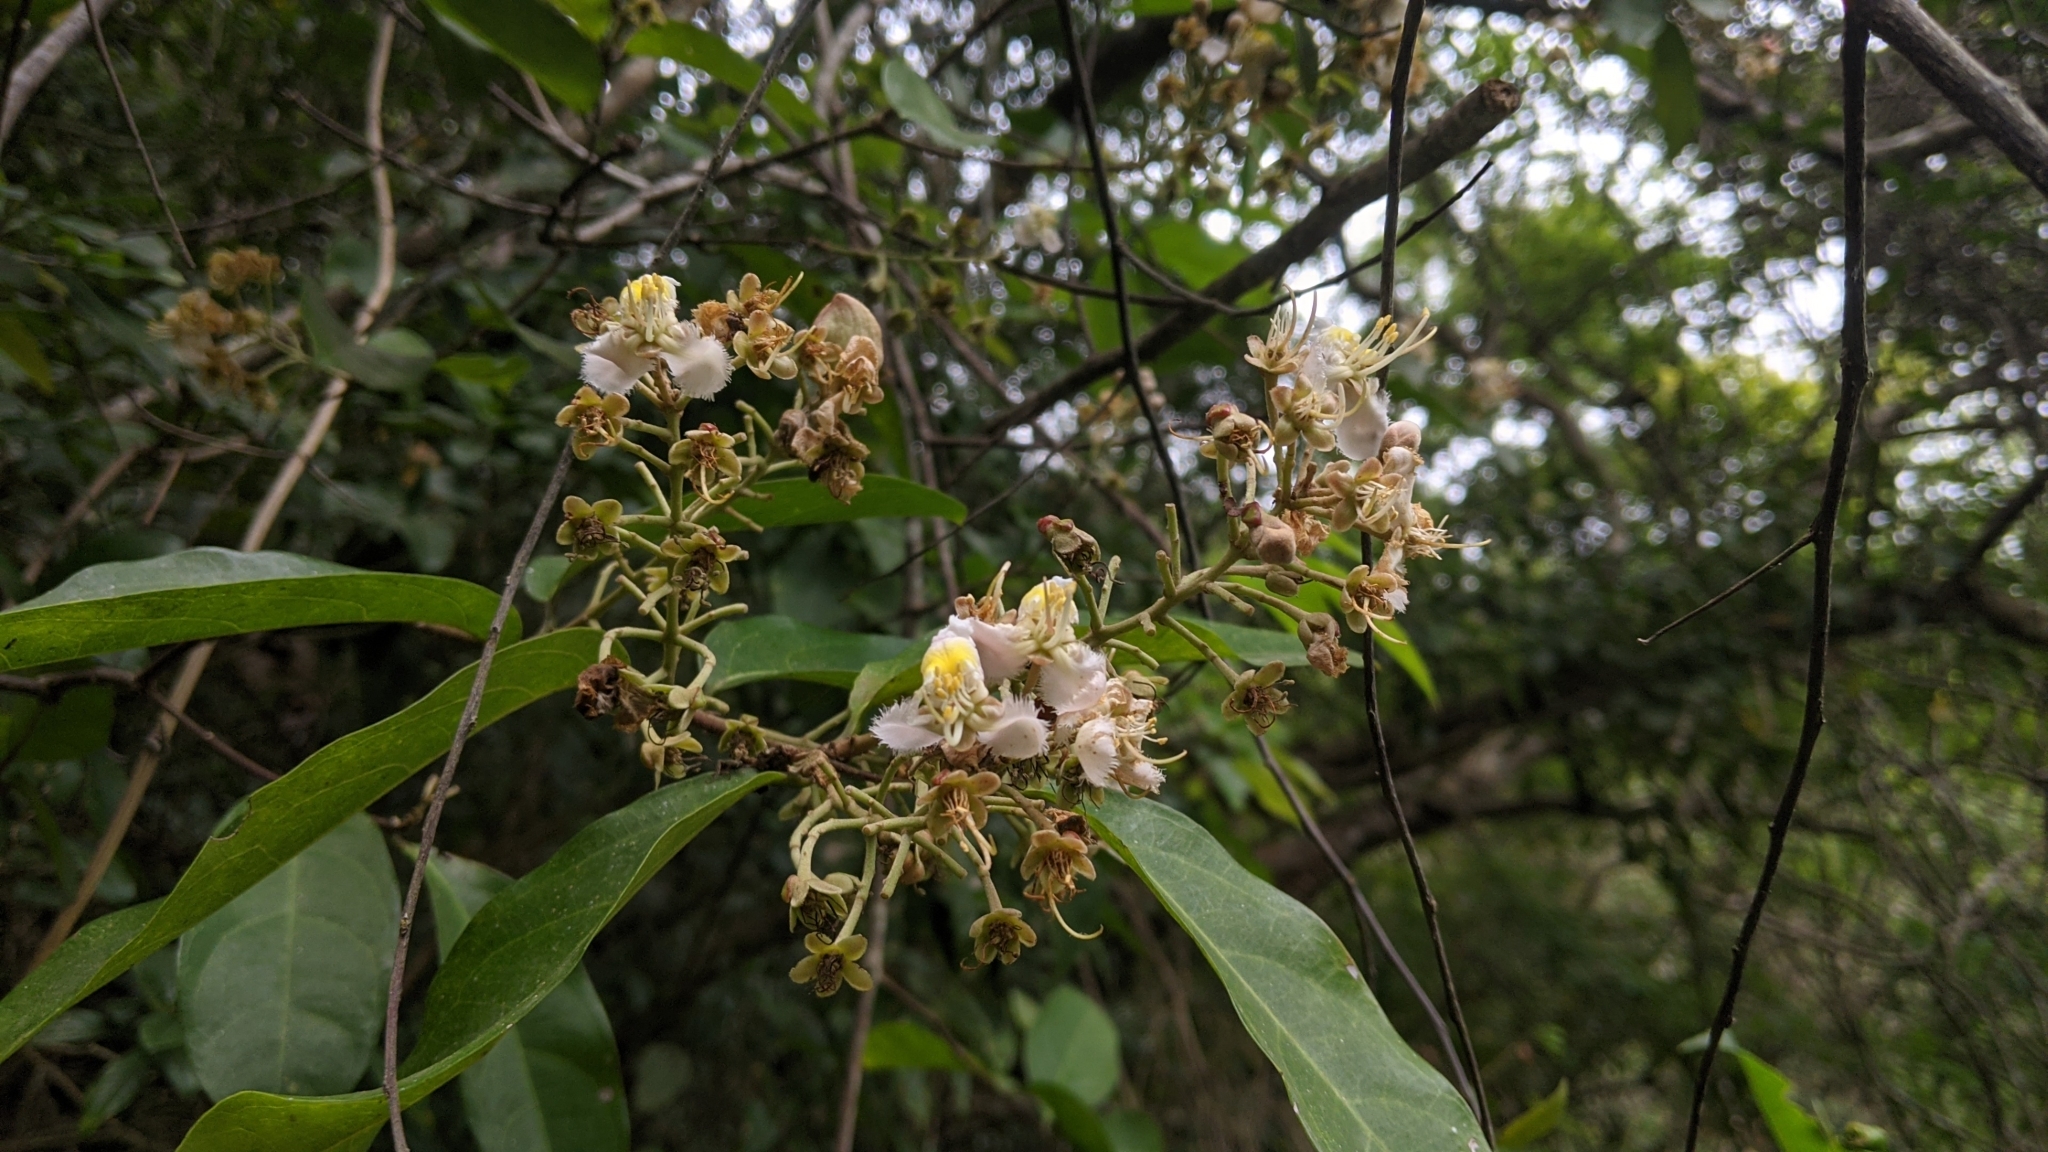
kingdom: Plantae
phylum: Tracheophyta
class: Magnoliopsida
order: Malpighiales
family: Malpighiaceae
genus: Hiptage
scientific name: Hiptage benghalensis
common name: Hiptage
